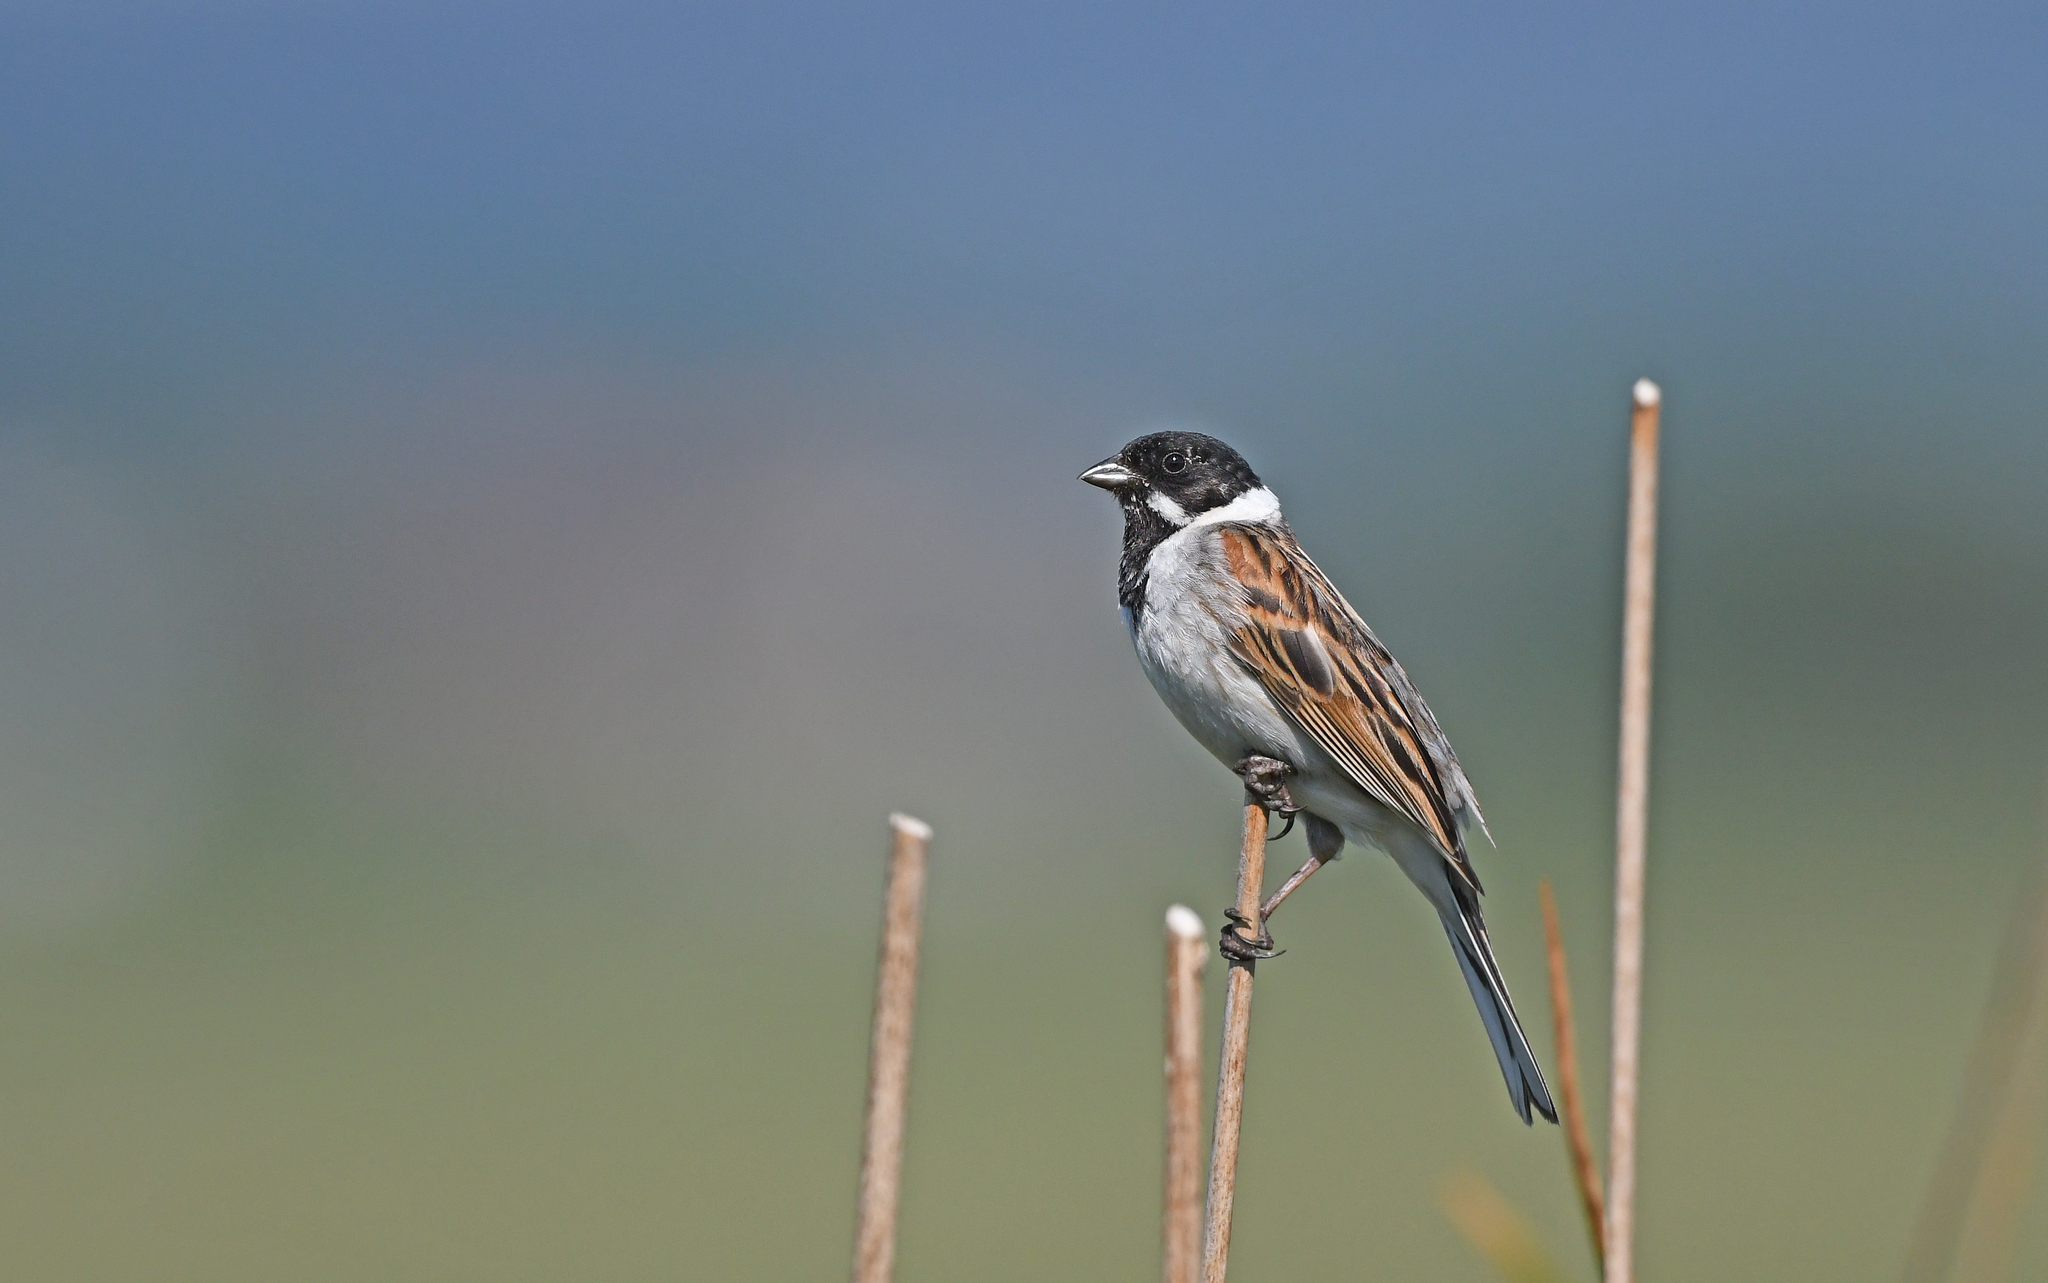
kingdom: Animalia
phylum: Chordata
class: Aves
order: Passeriformes
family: Emberizidae
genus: Emberiza
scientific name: Emberiza schoeniclus
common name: Reed bunting
